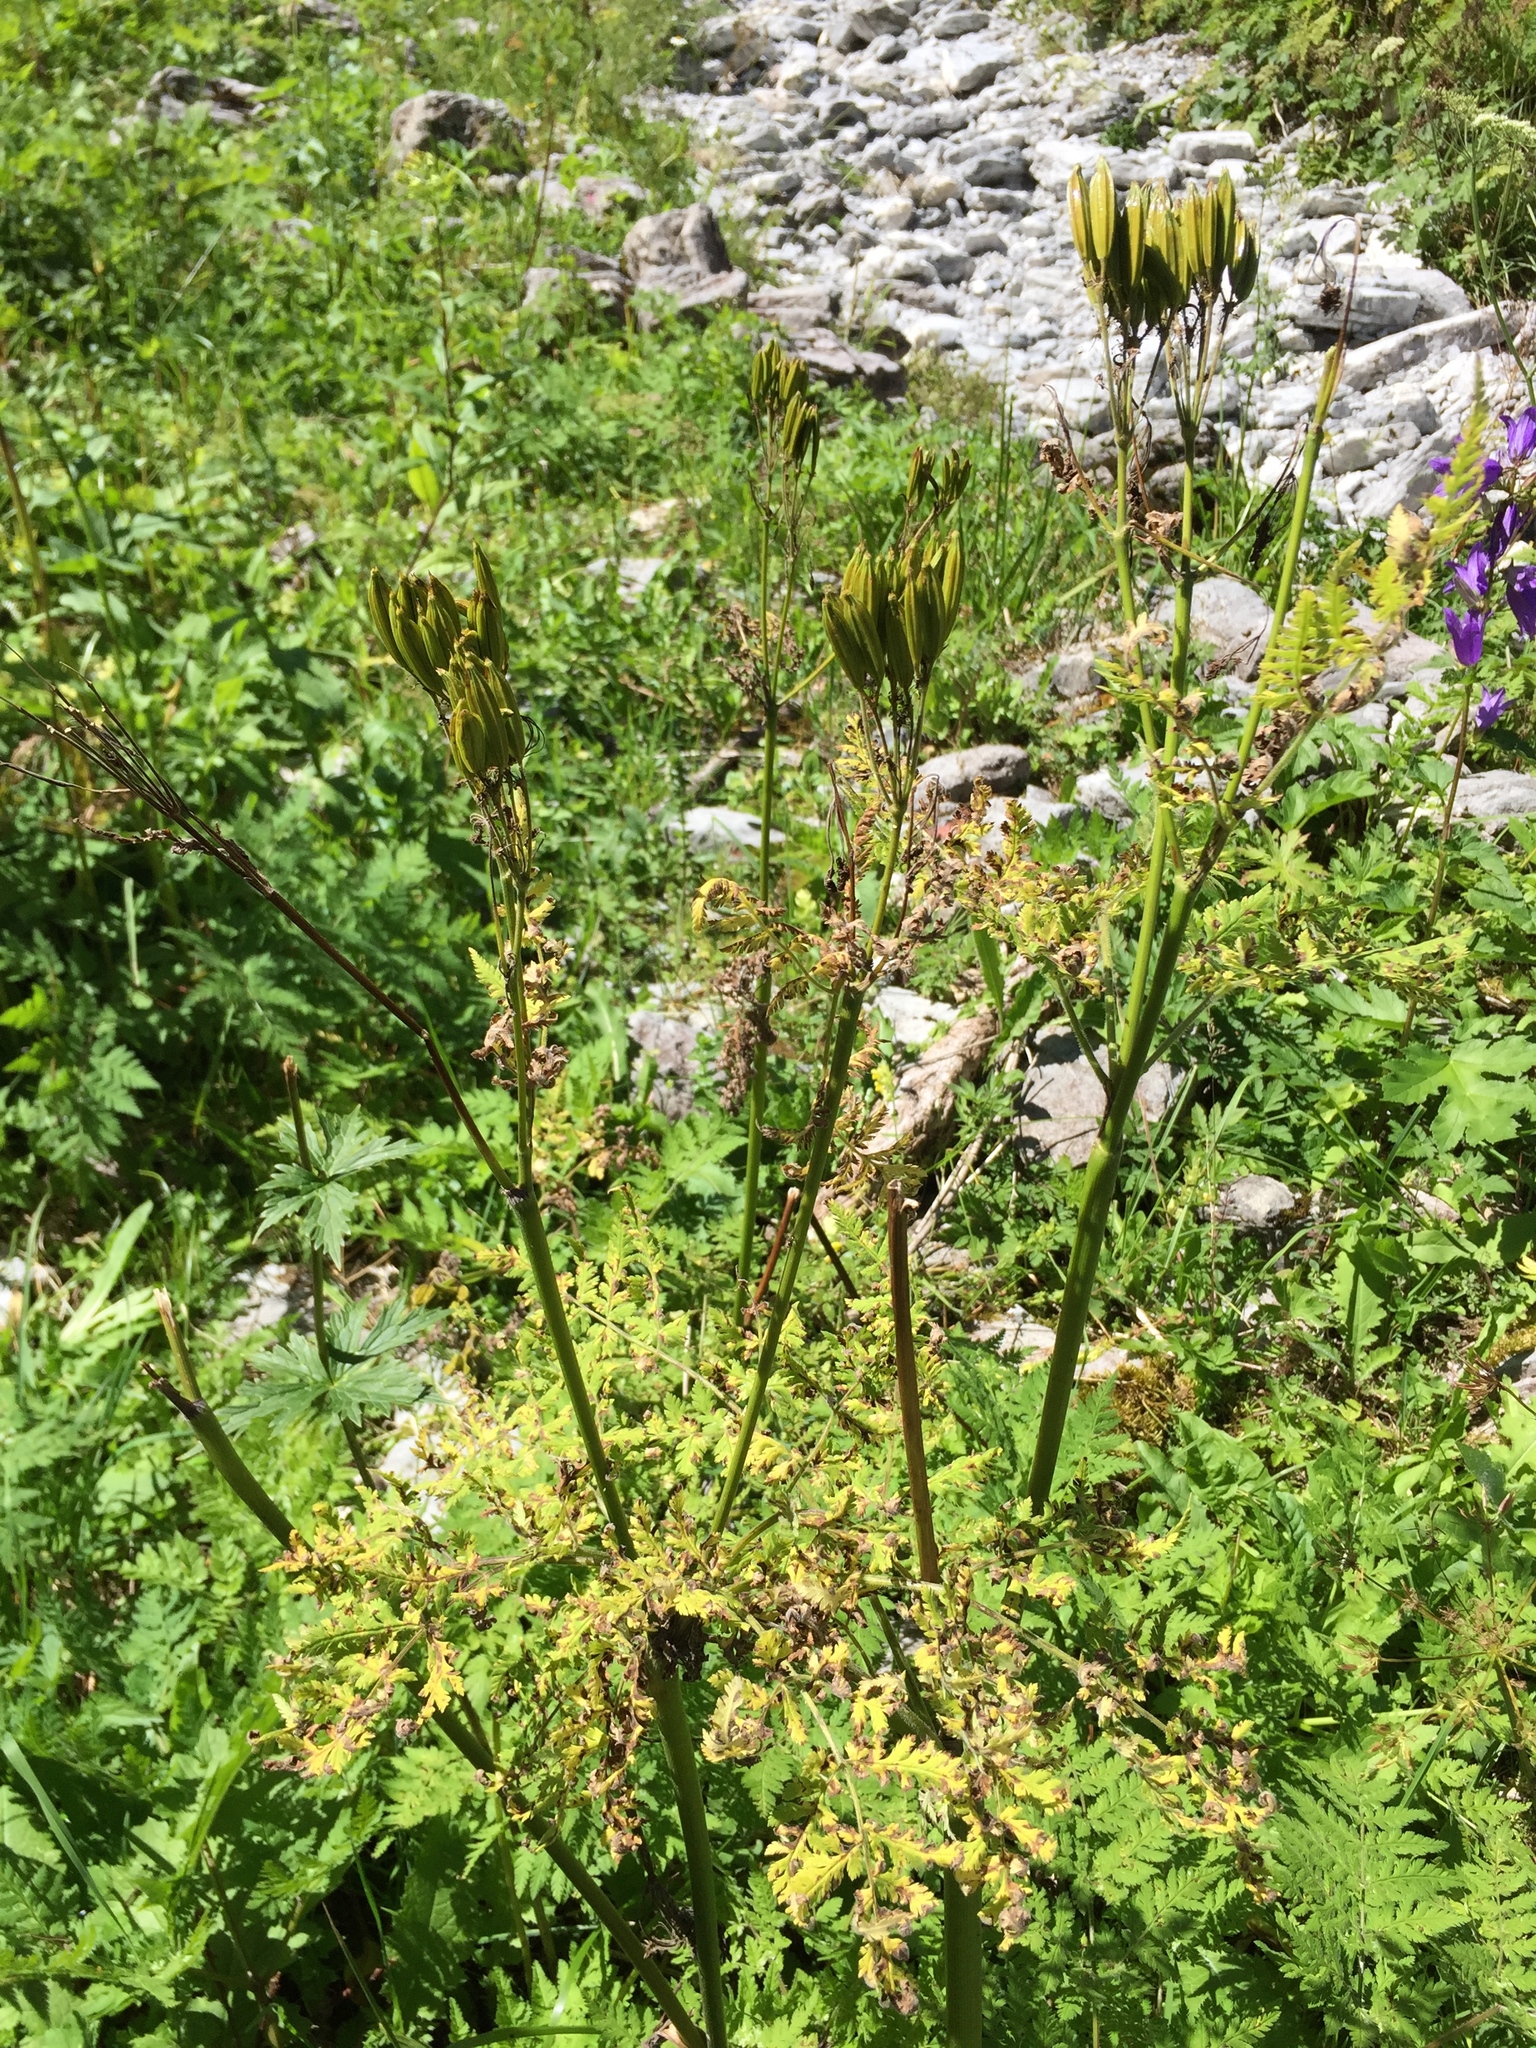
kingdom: Plantae
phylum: Tracheophyta
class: Magnoliopsida
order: Apiales
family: Apiaceae
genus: Myrrhis
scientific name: Myrrhis odorata
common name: Sweet cicely
